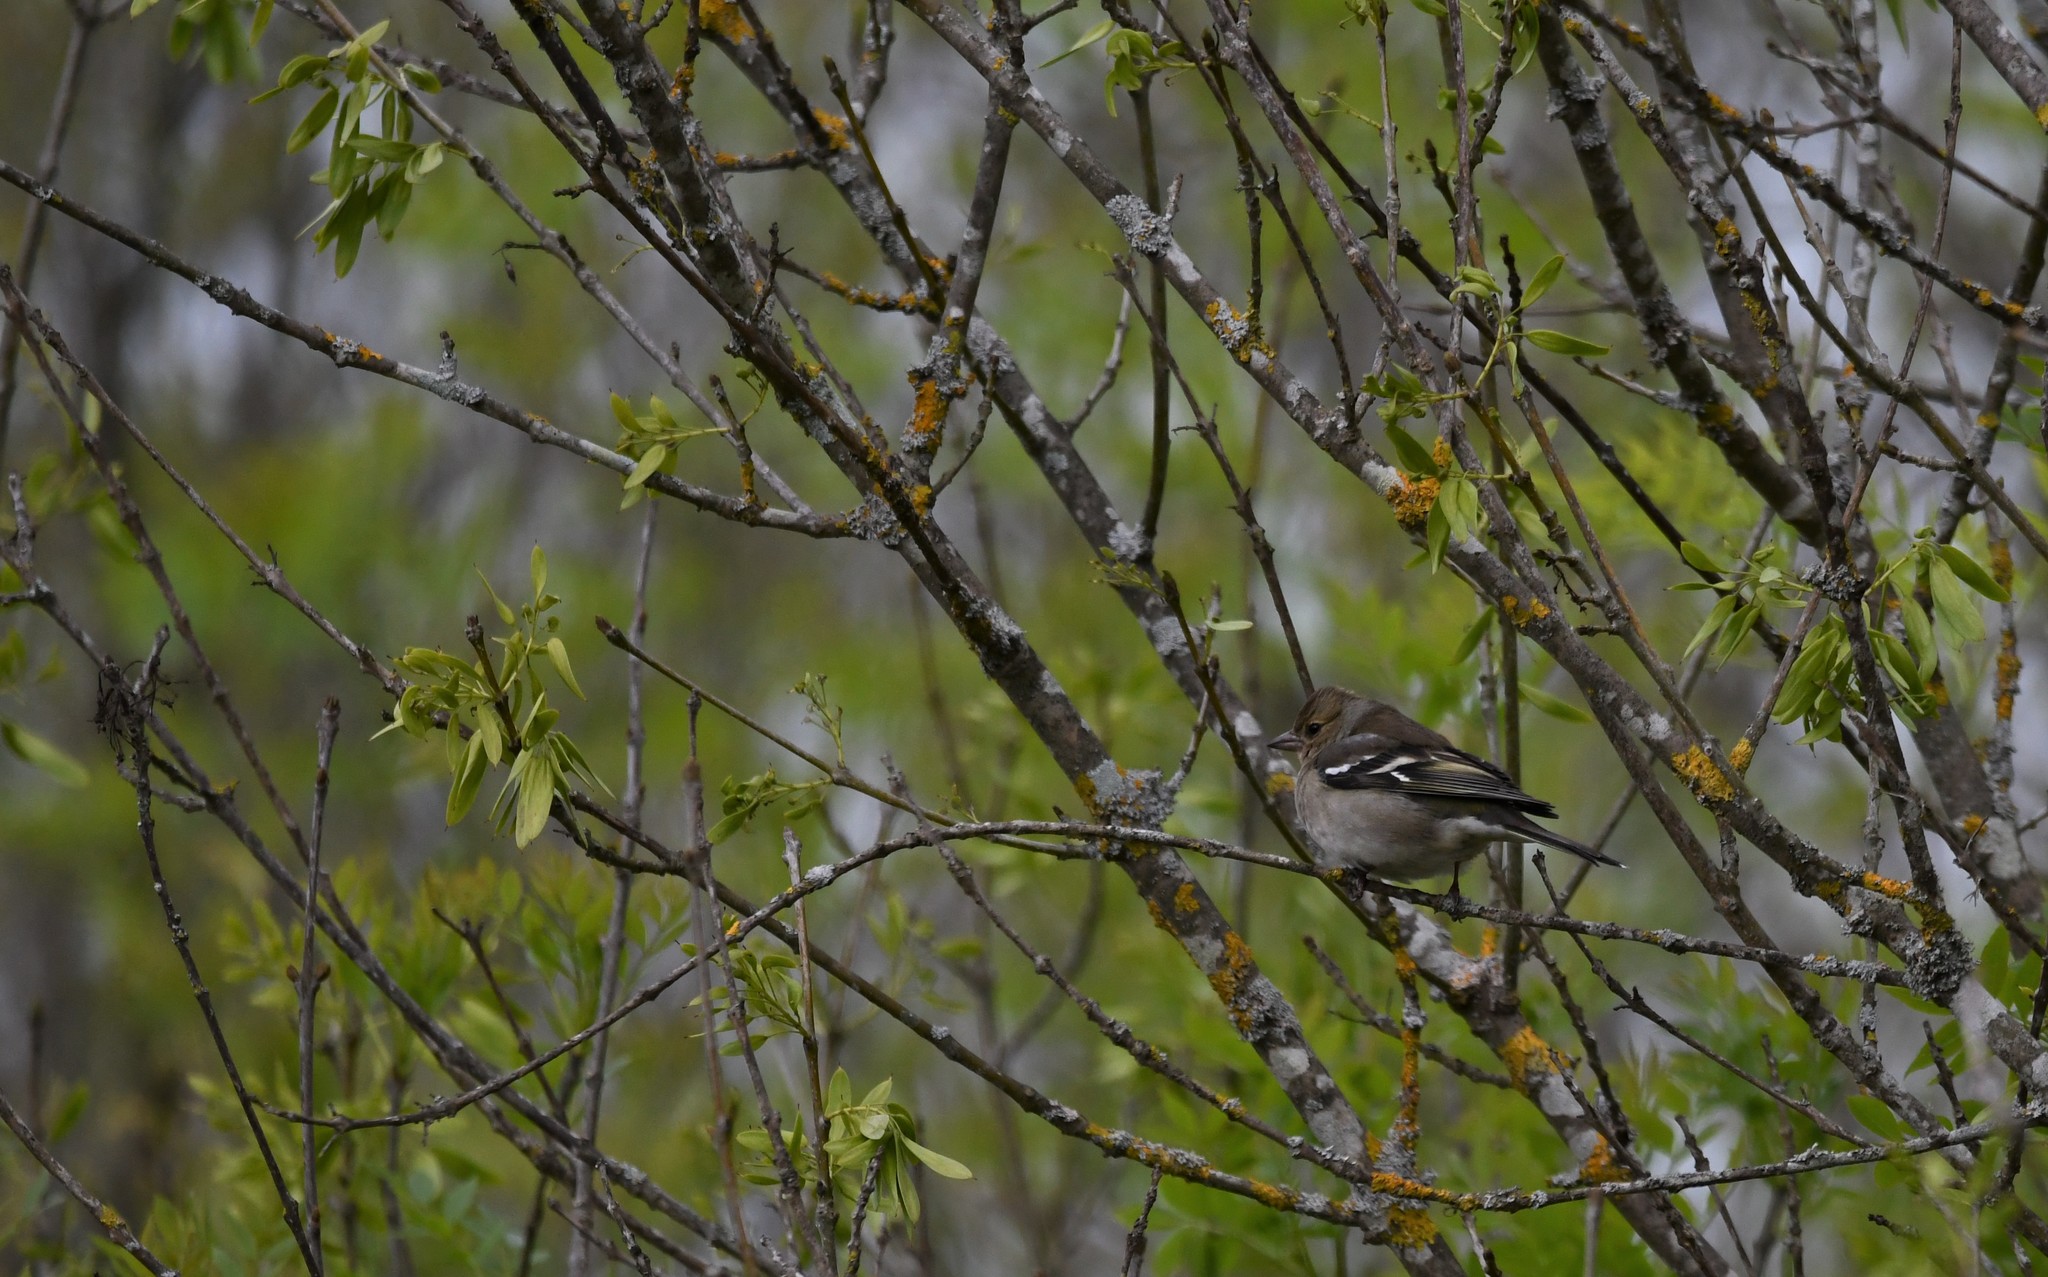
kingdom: Animalia
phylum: Chordata
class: Aves
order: Passeriformes
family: Fringillidae
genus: Fringilla
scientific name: Fringilla coelebs
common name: Common chaffinch
